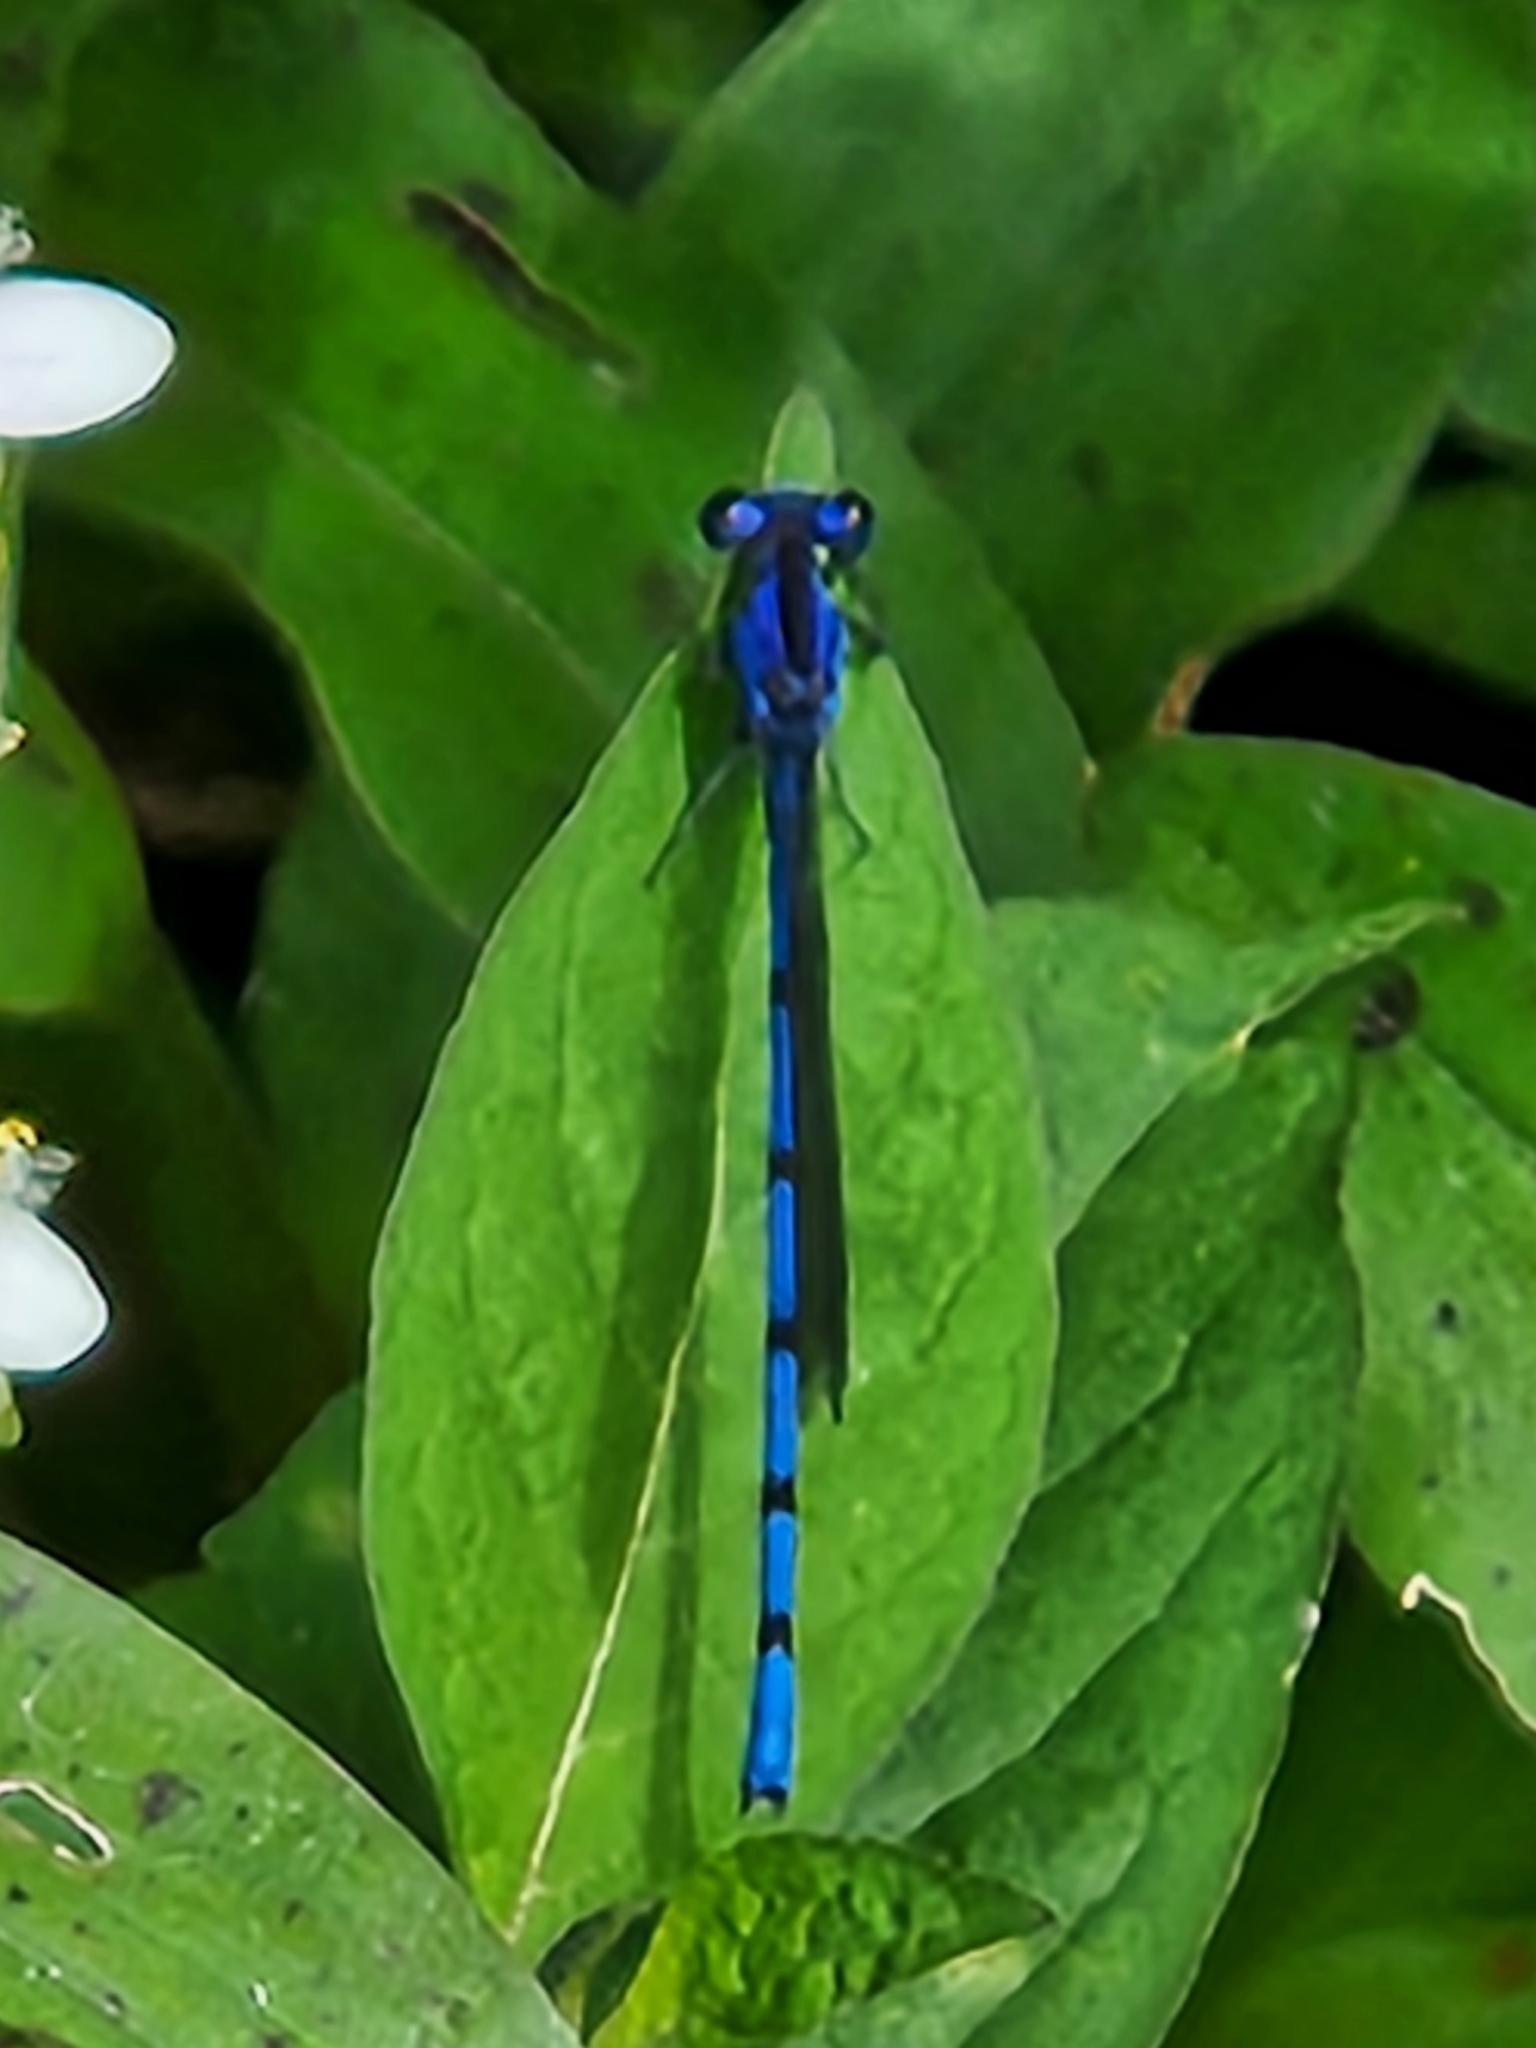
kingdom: Animalia
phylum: Arthropoda
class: Insecta
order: Odonata
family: Coenagrionidae
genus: Argia
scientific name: Argia elongata
